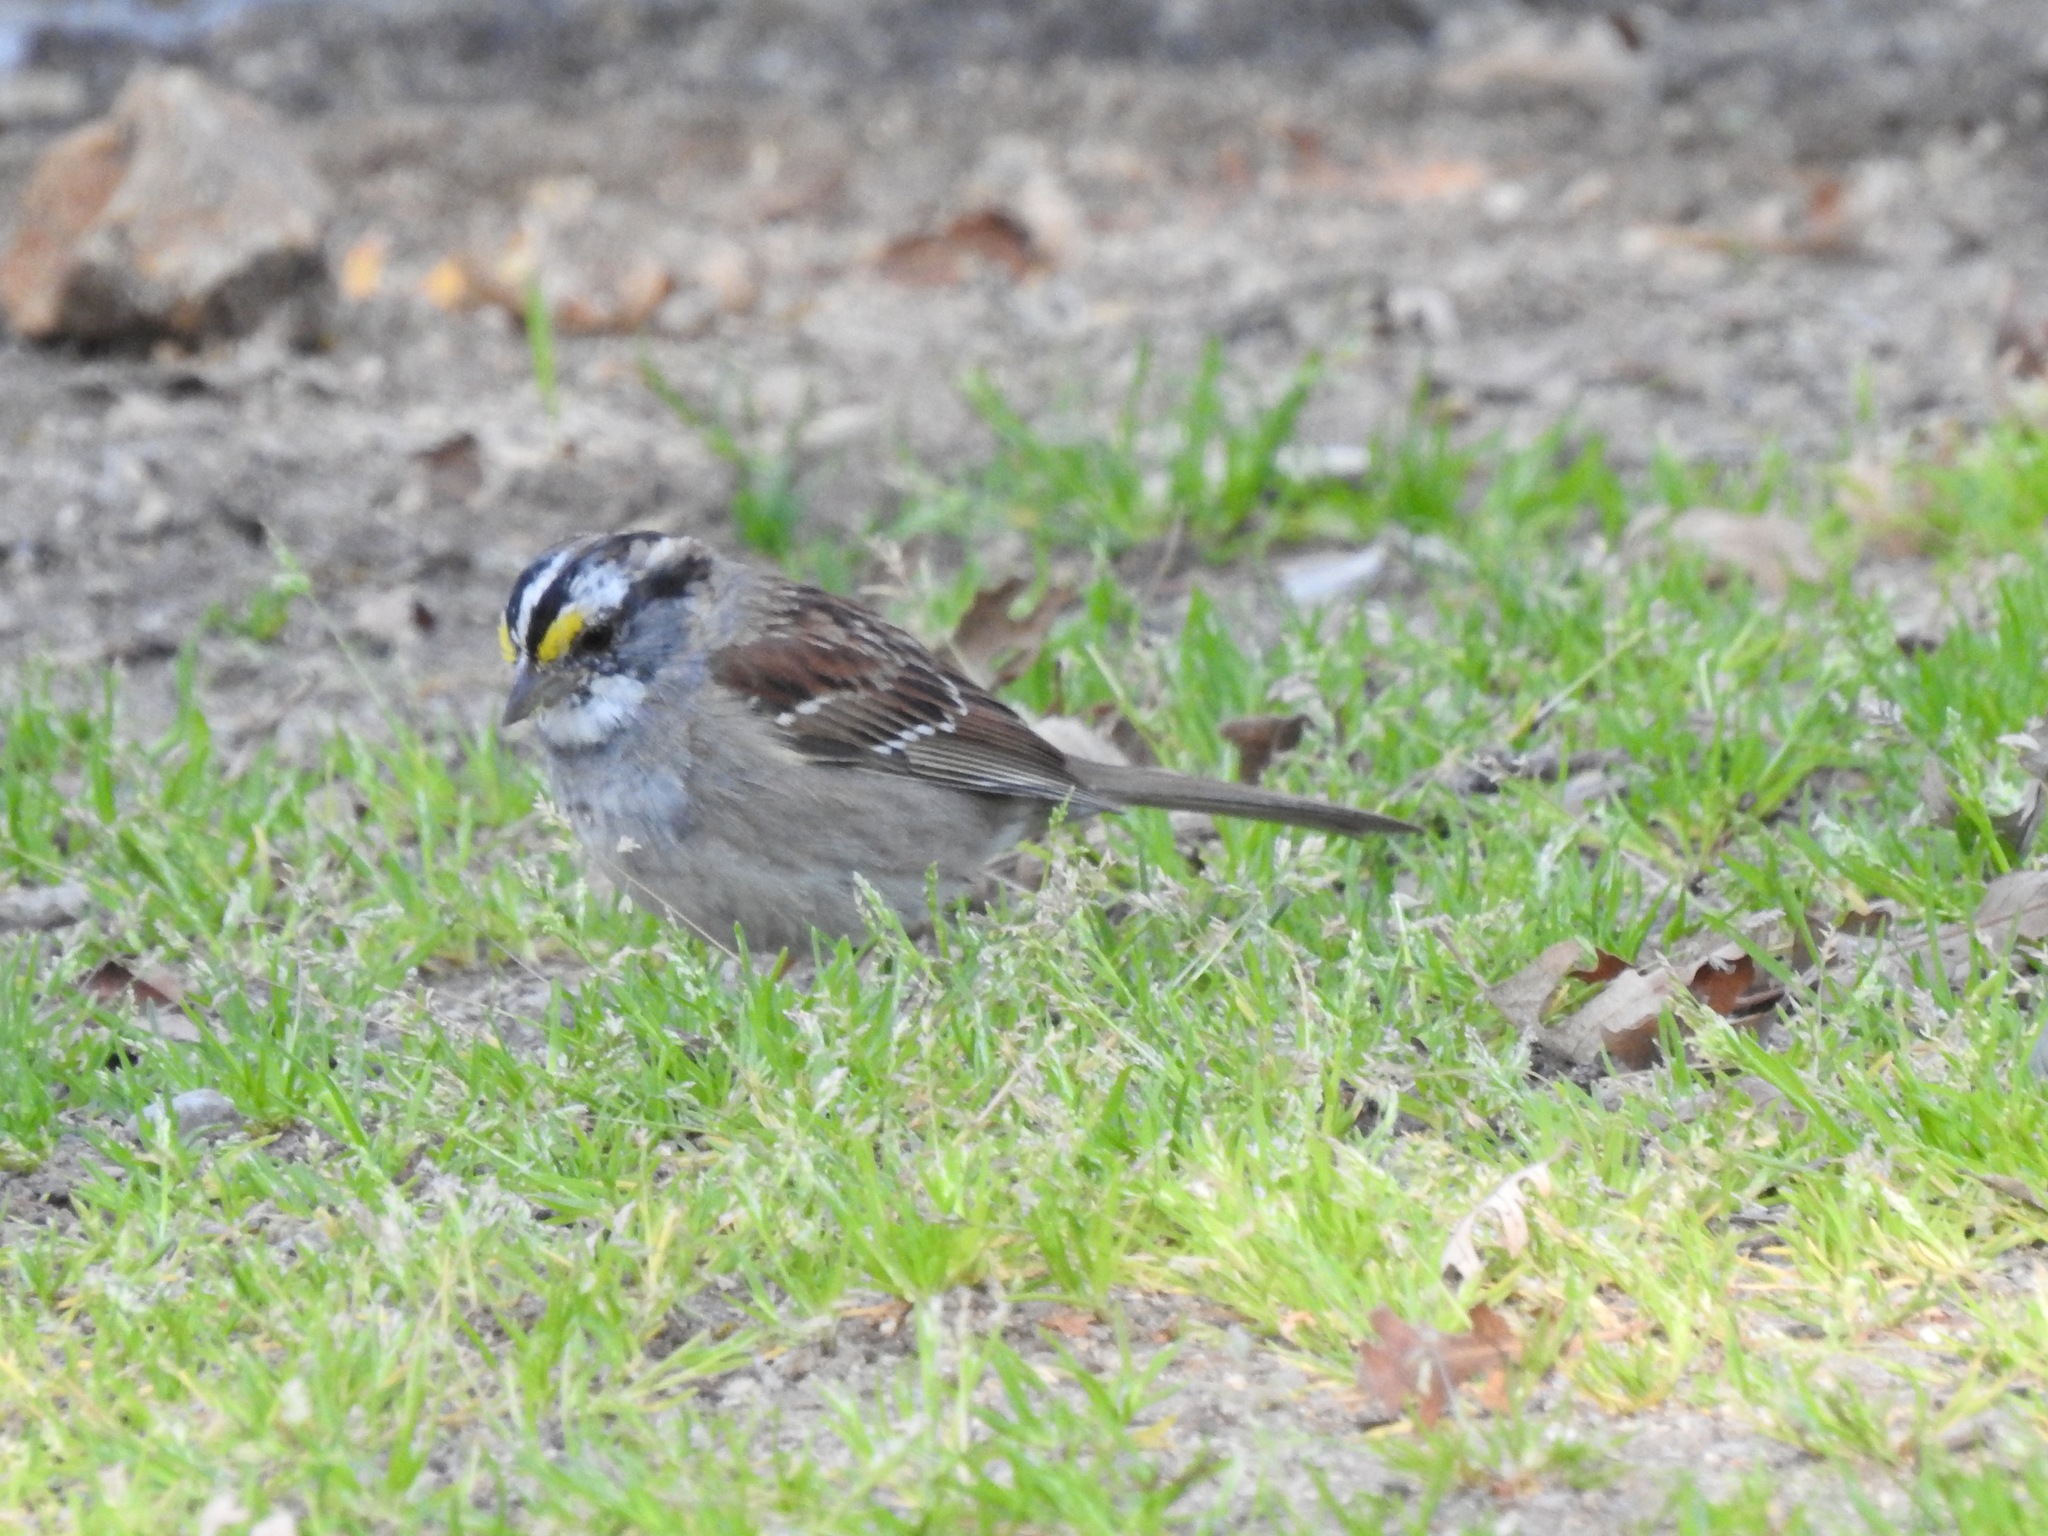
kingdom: Animalia
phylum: Chordata
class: Aves
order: Passeriformes
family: Passerellidae
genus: Zonotrichia
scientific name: Zonotrichia albicollis
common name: White-throated sparrow
